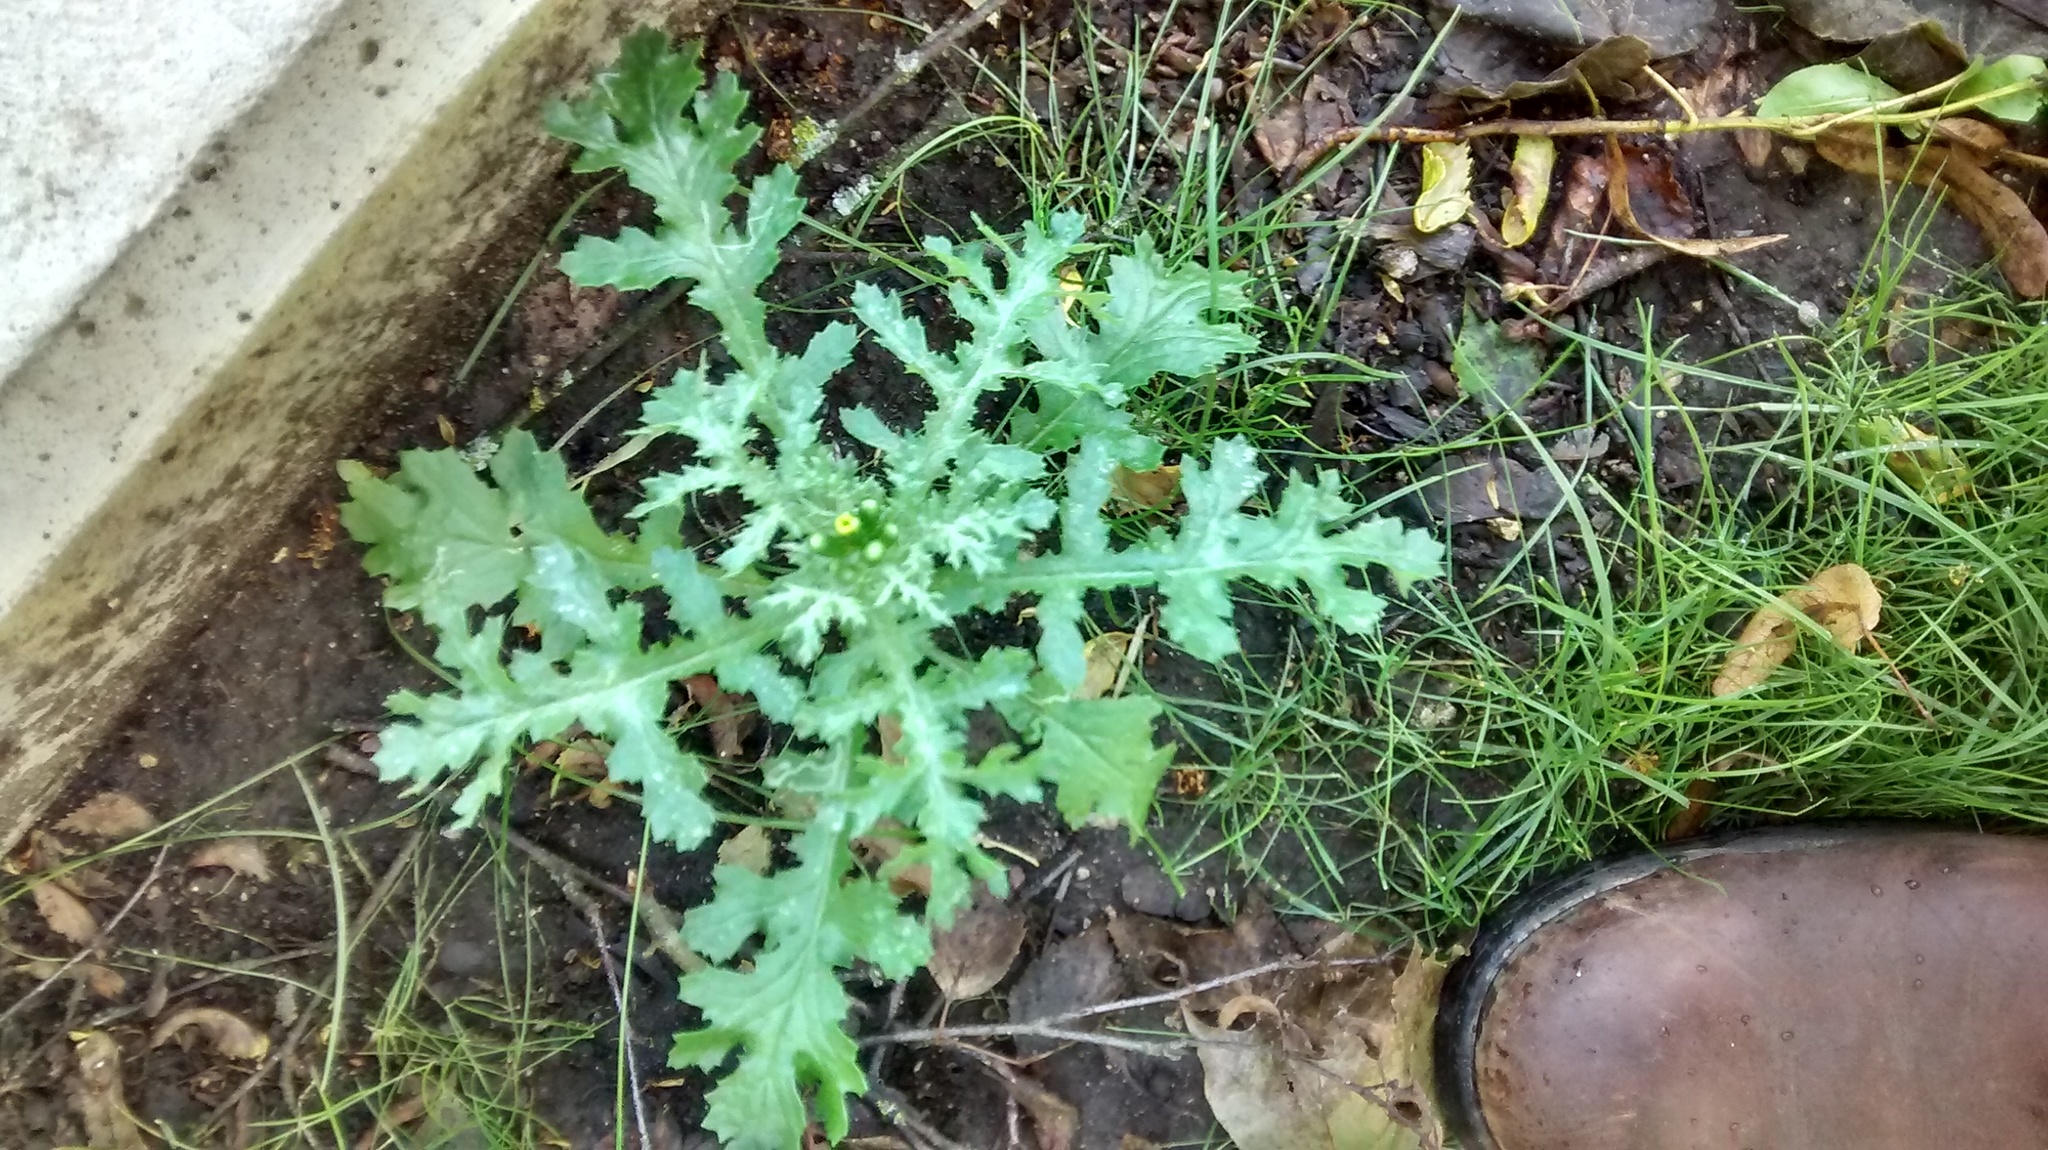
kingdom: Plantae
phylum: Tracheophyta
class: Magnoliopsida
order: Asterales
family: Asteraceae
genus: Senecio
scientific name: Senecio vulgaris
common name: Old-man-in-the-spring
